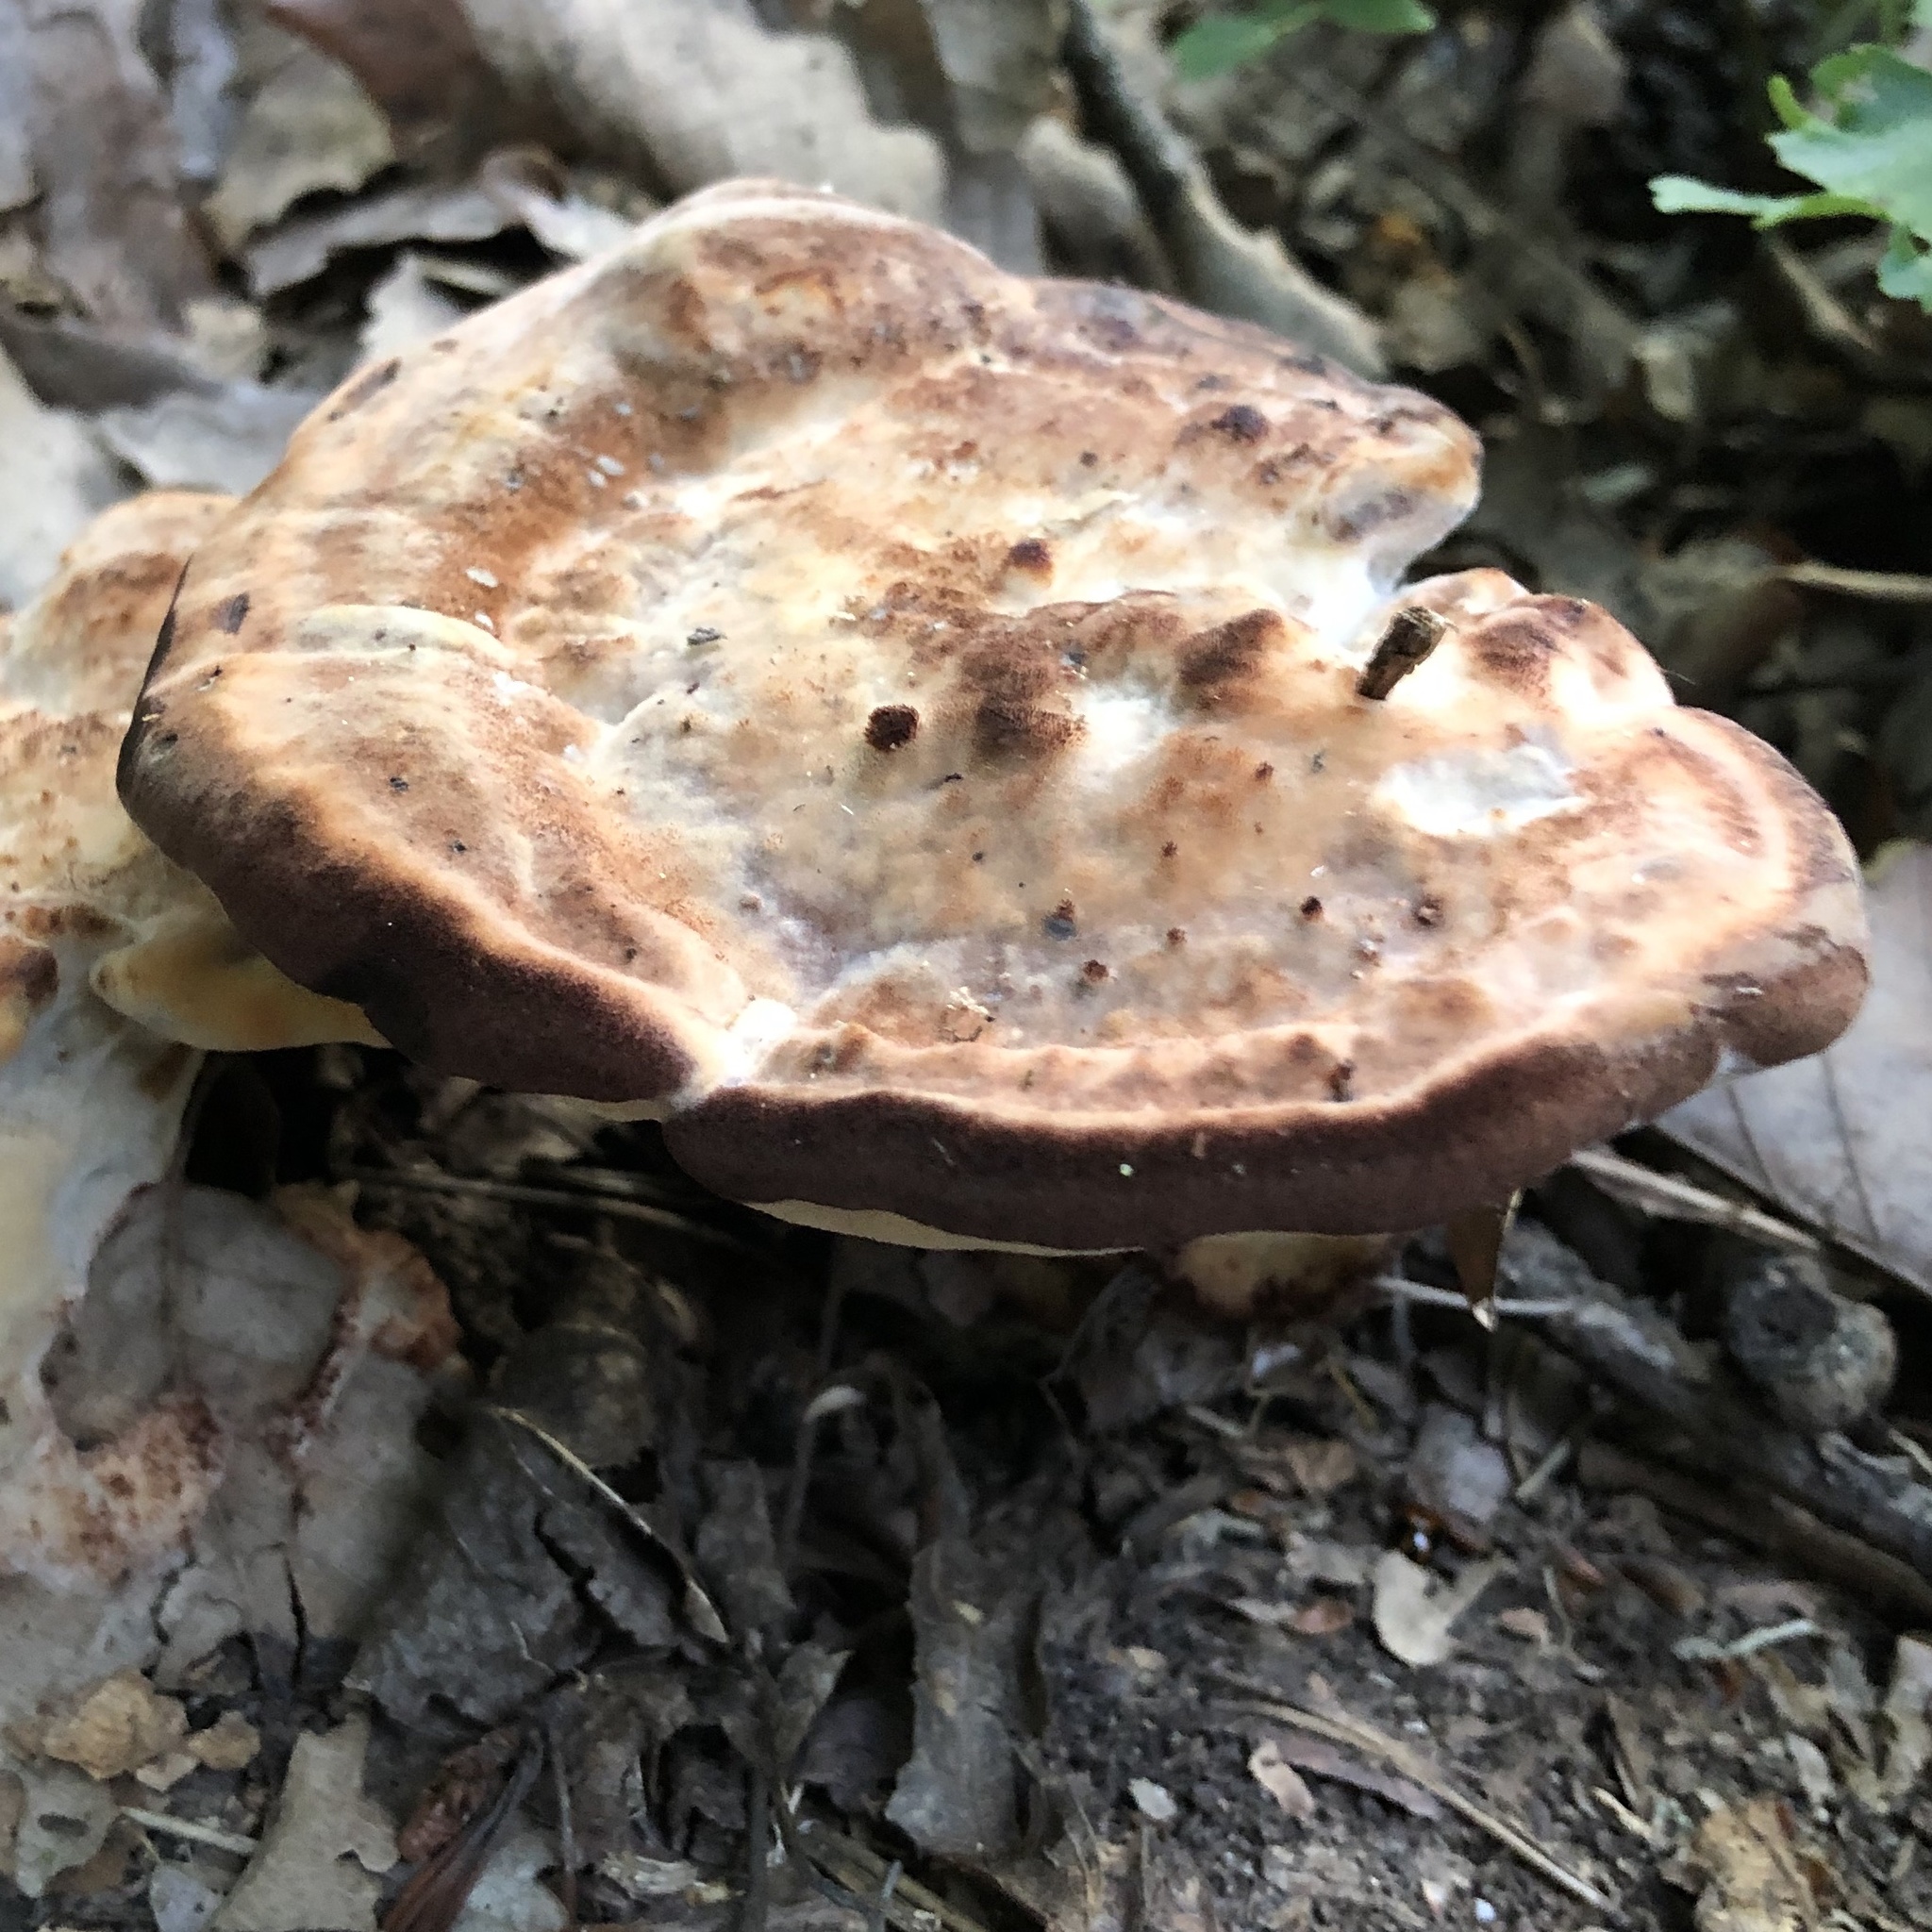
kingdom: Fungi
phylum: Basidiomycota
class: Agaricomycetes
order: Polyporales
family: Laetiporaceae
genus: Berkcurtia
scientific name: Berkcurtia persicina
